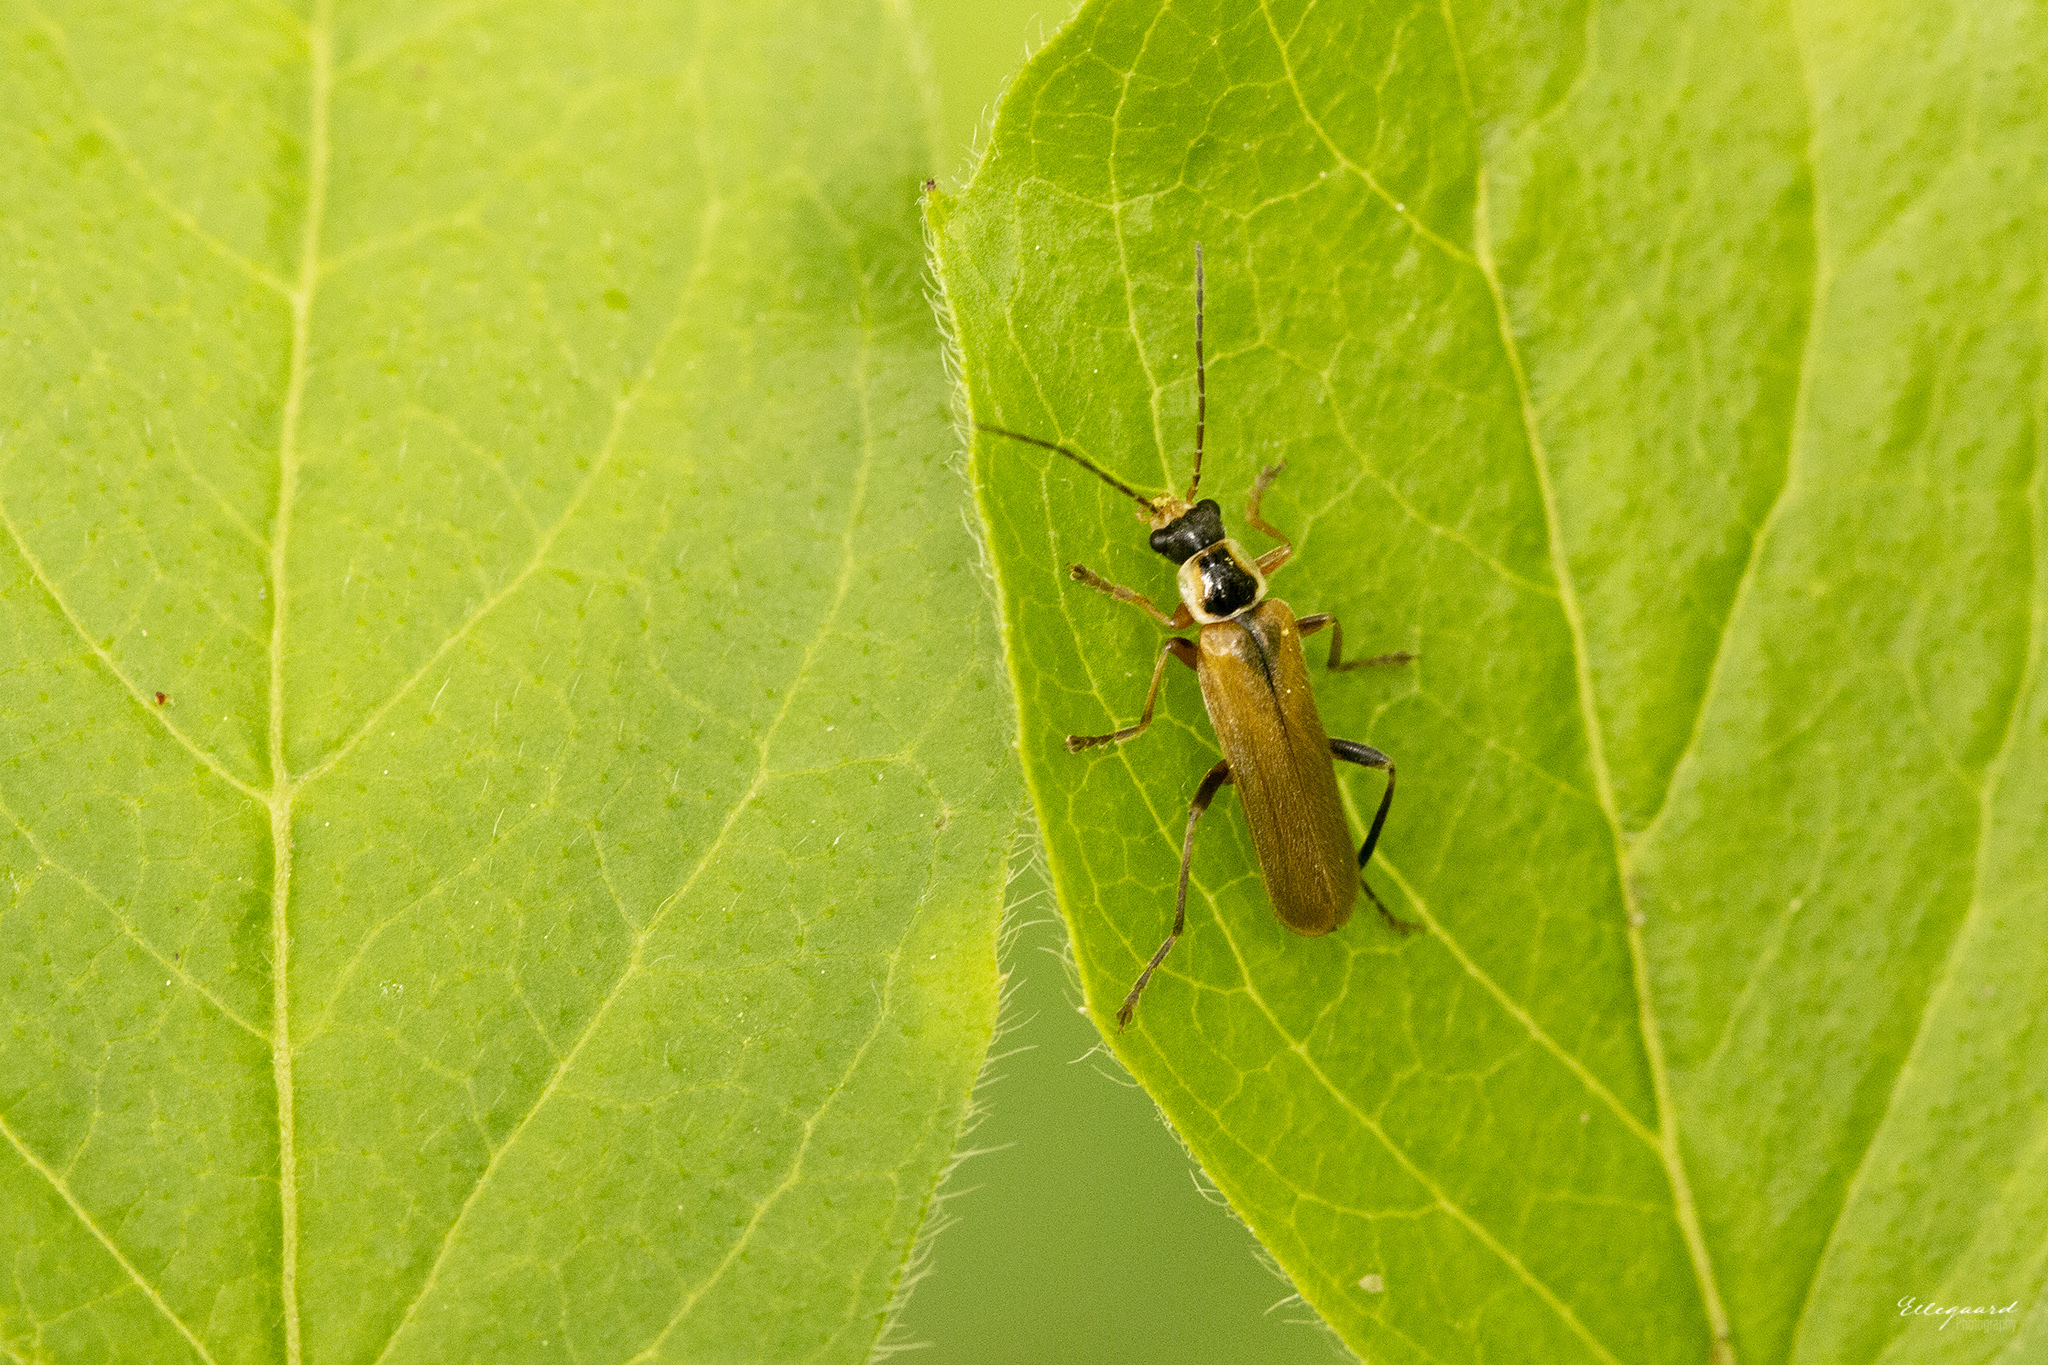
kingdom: Animalia
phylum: Arthropoda
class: Insecta
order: Coleoptera
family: Cantharidae
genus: Cantharis
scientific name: Cantharis decipiens
